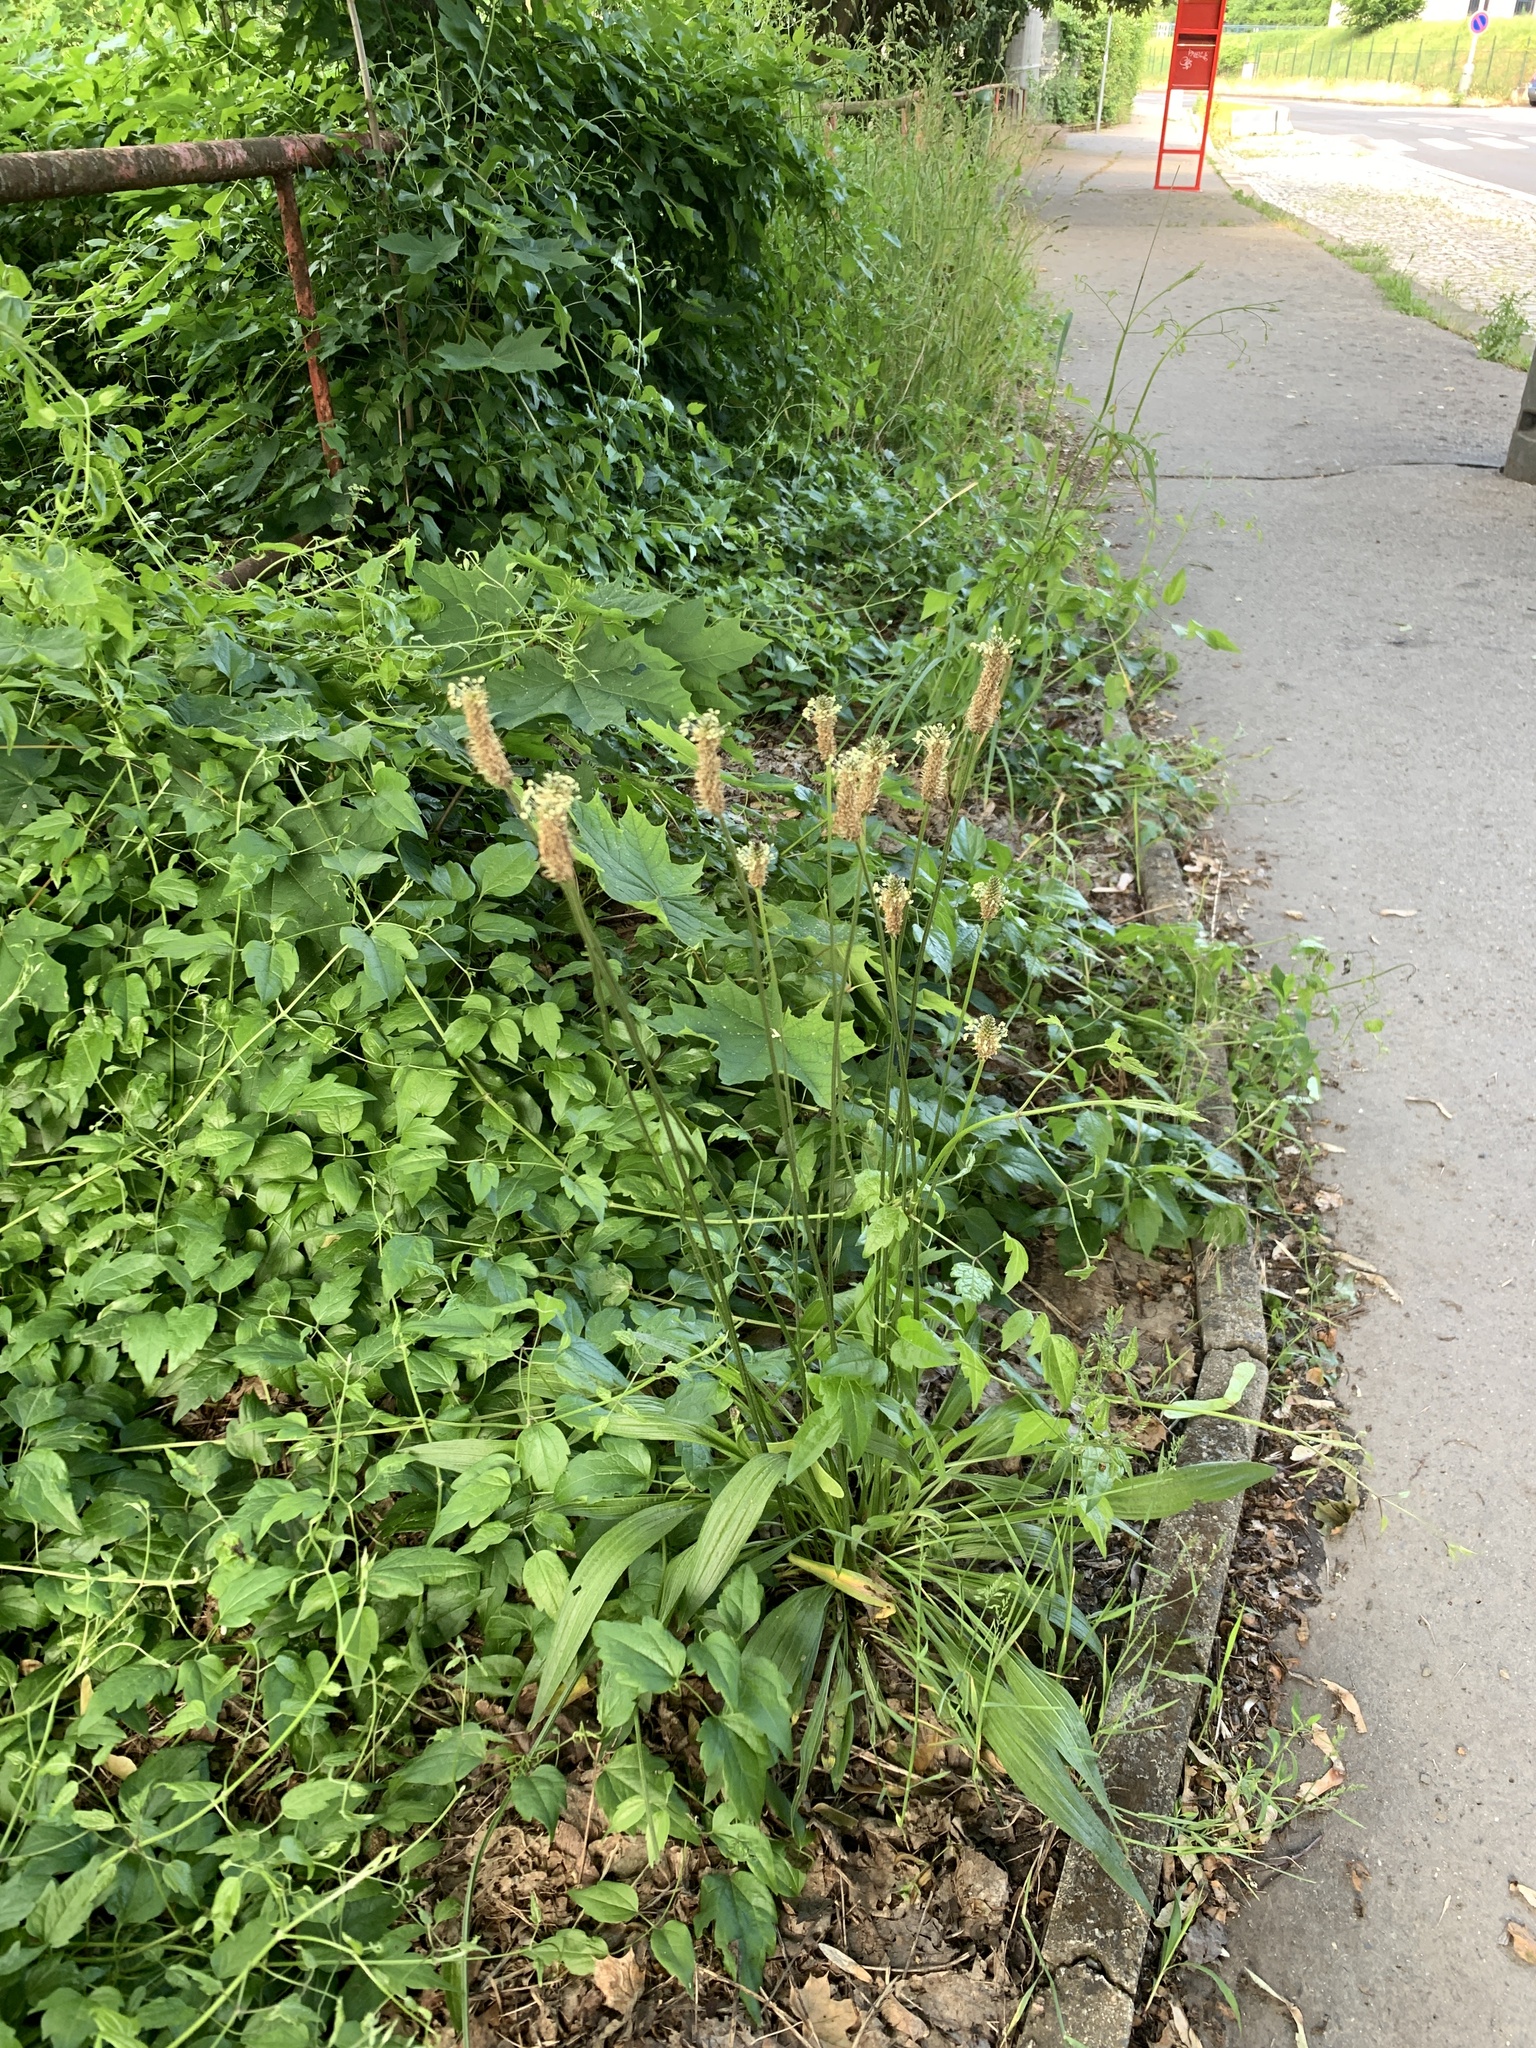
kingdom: Plantae
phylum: Tracheophyta
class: Magnoliopsida
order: Lamiales
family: Plantaginaceae
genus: Plantago
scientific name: Plantago lanceolata
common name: Ribwort plantain
